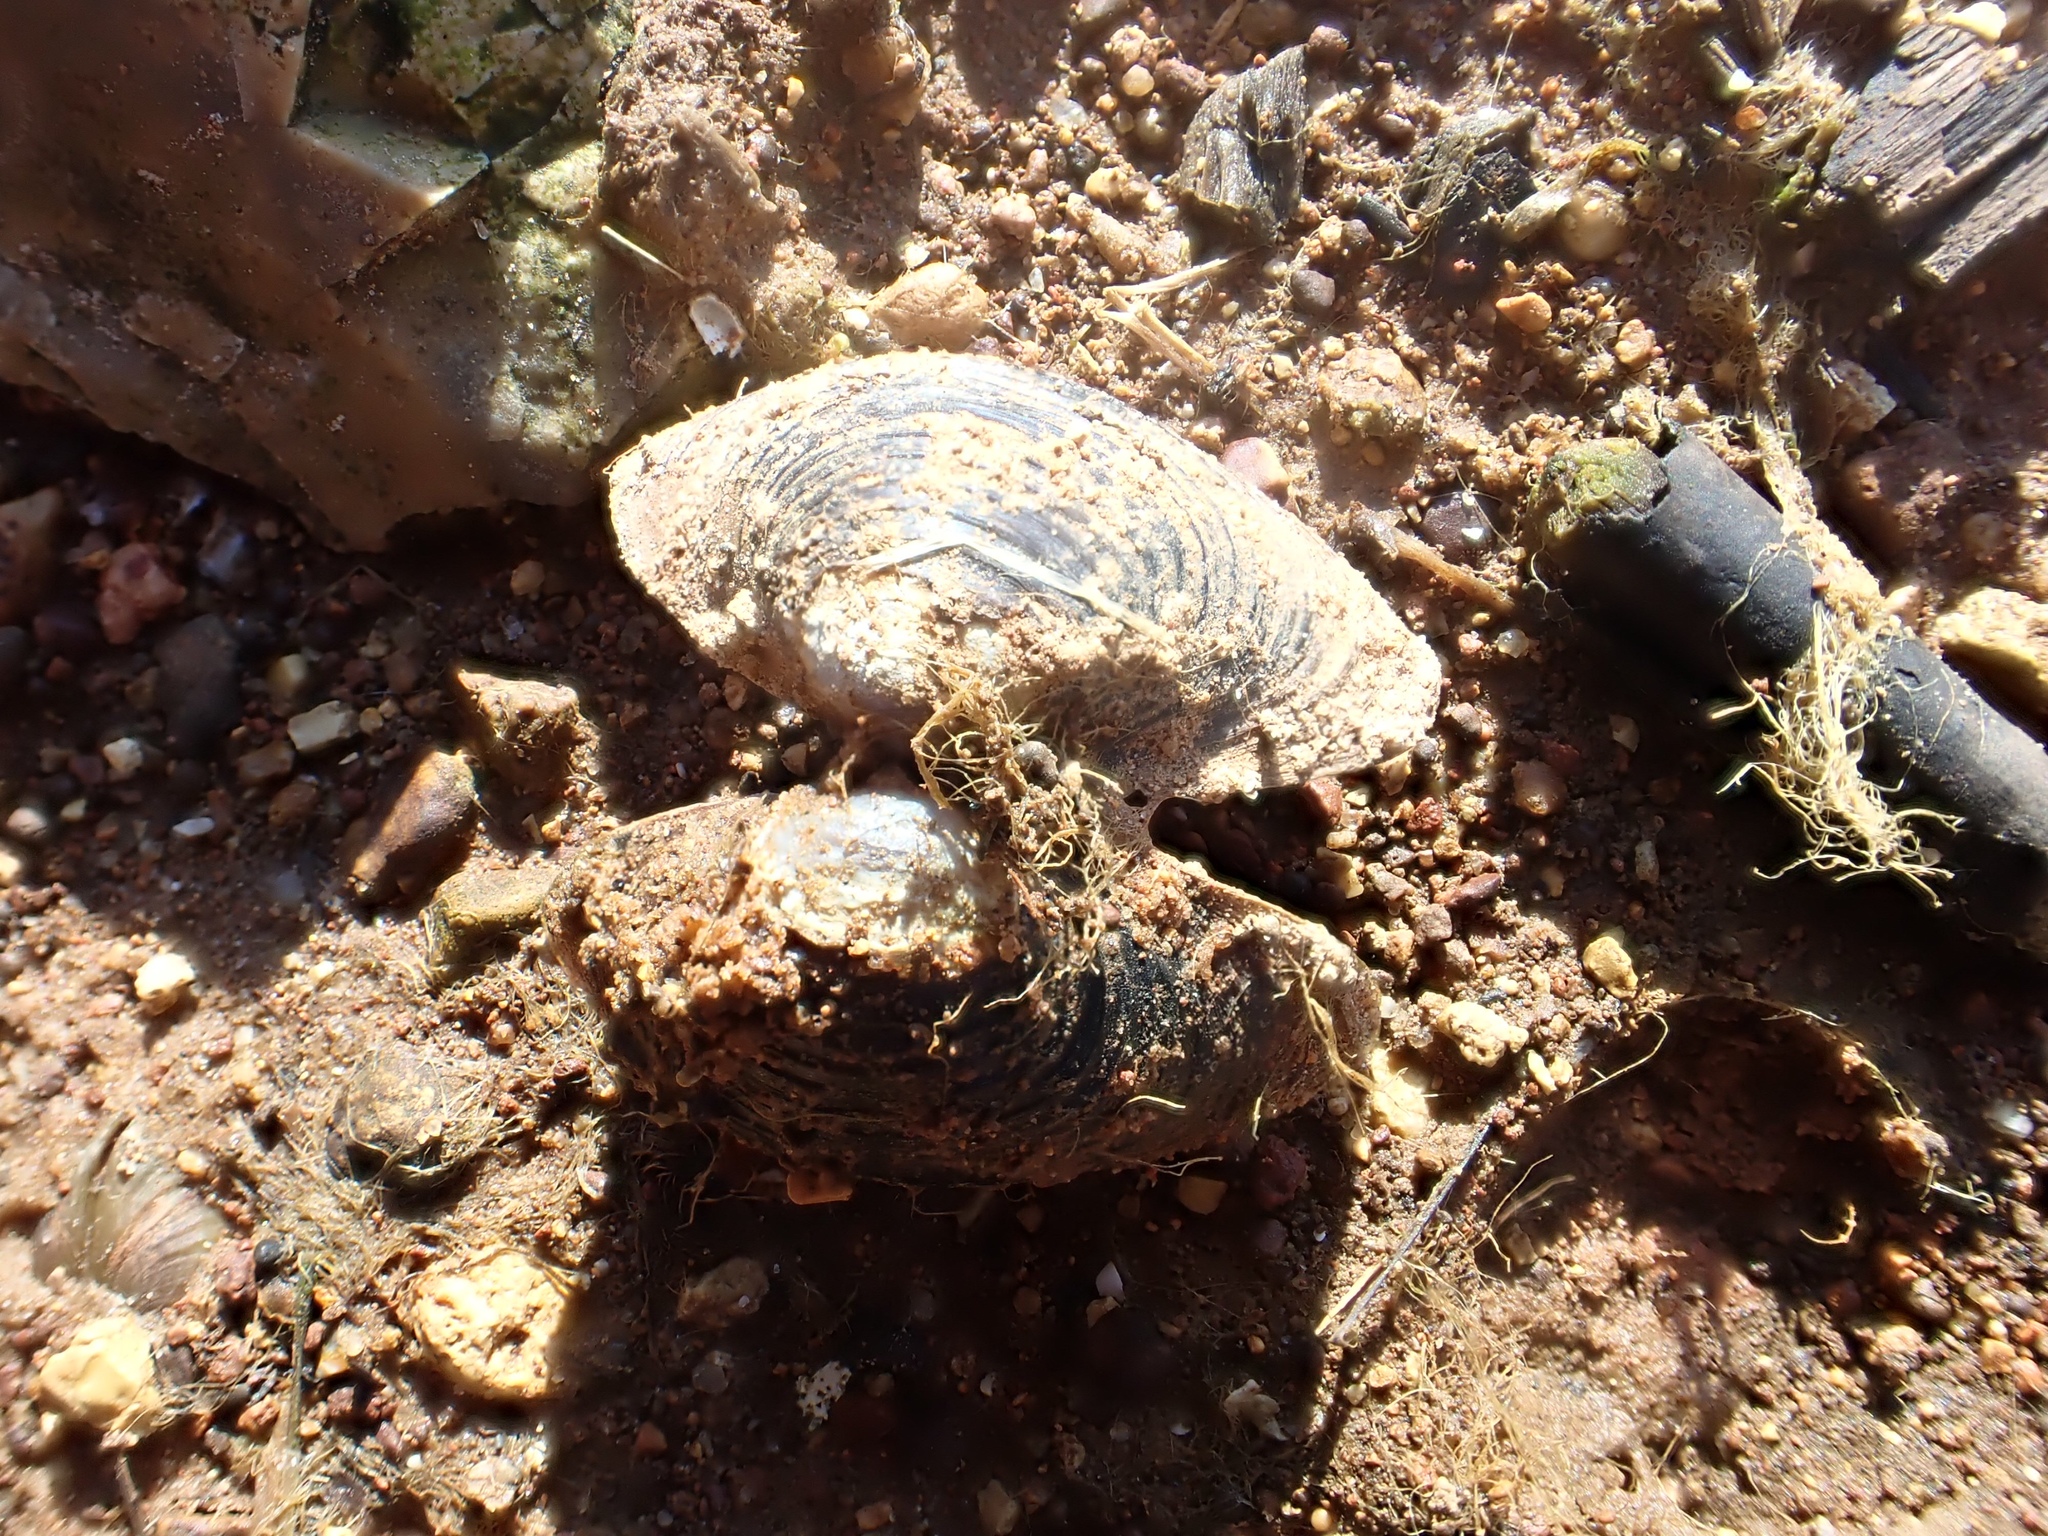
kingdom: Animalia
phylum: Mollusca
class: Bivalvia
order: Venerida
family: Cyrenidae
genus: Corbicula
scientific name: Corbicula fluminea
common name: Asian clam
